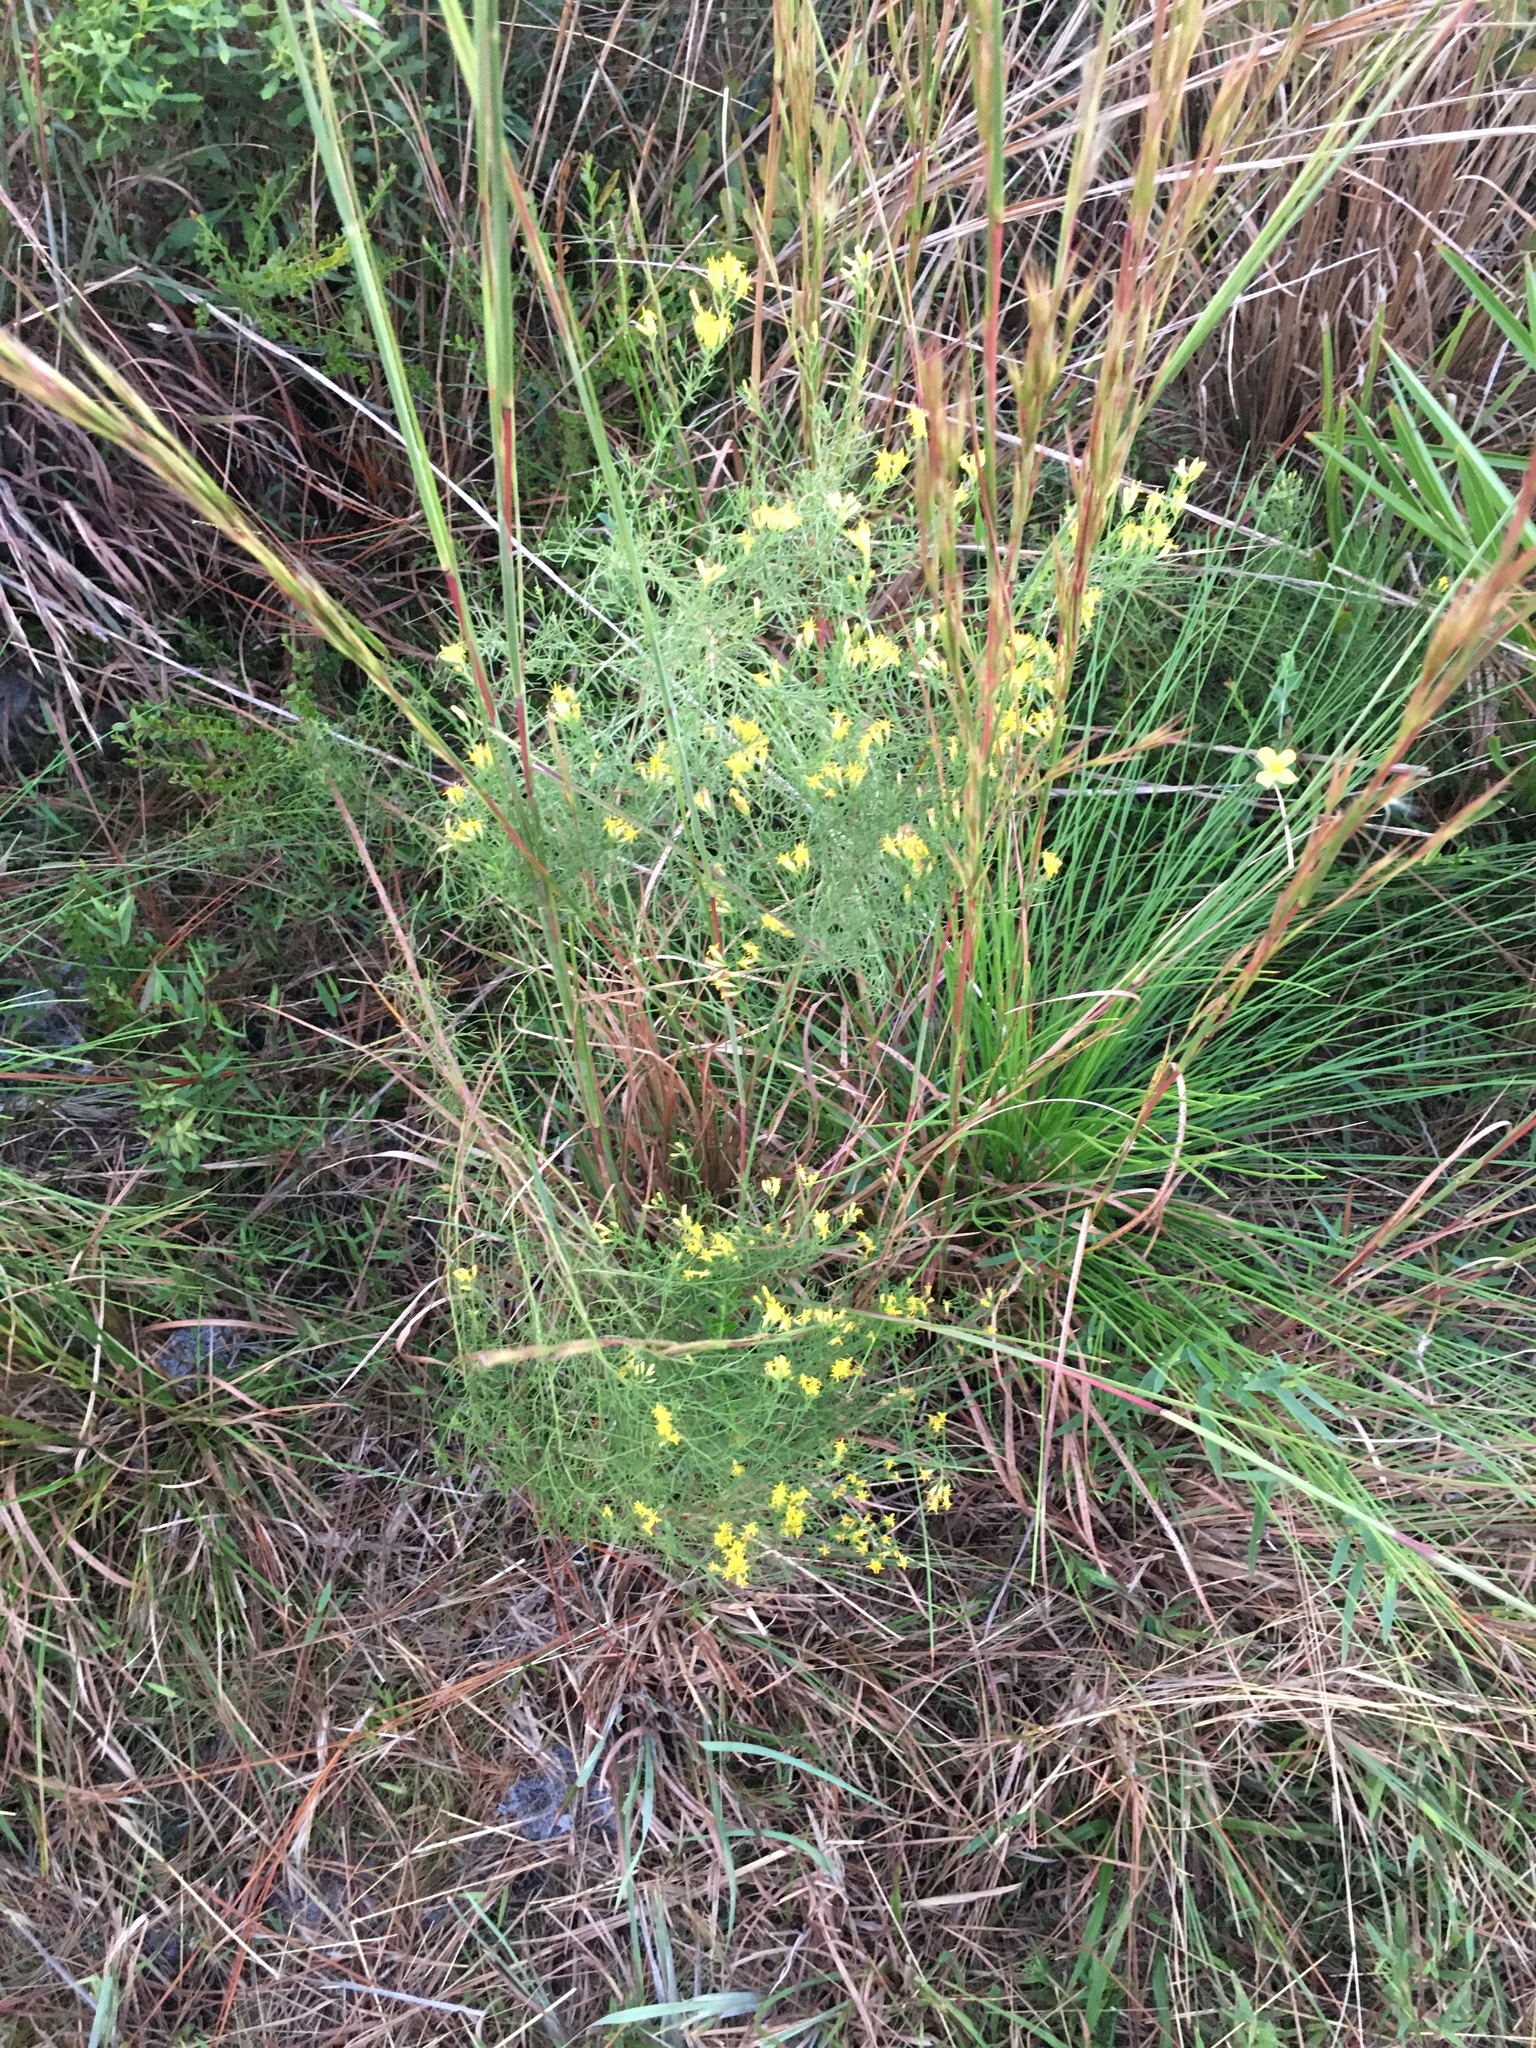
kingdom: Plantae
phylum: Tracheophyta
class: Magnoliopsida
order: Asterales
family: Asteraceae
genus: Euthamia
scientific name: Euthamia caroliniana
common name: Coastal plain goldentop
